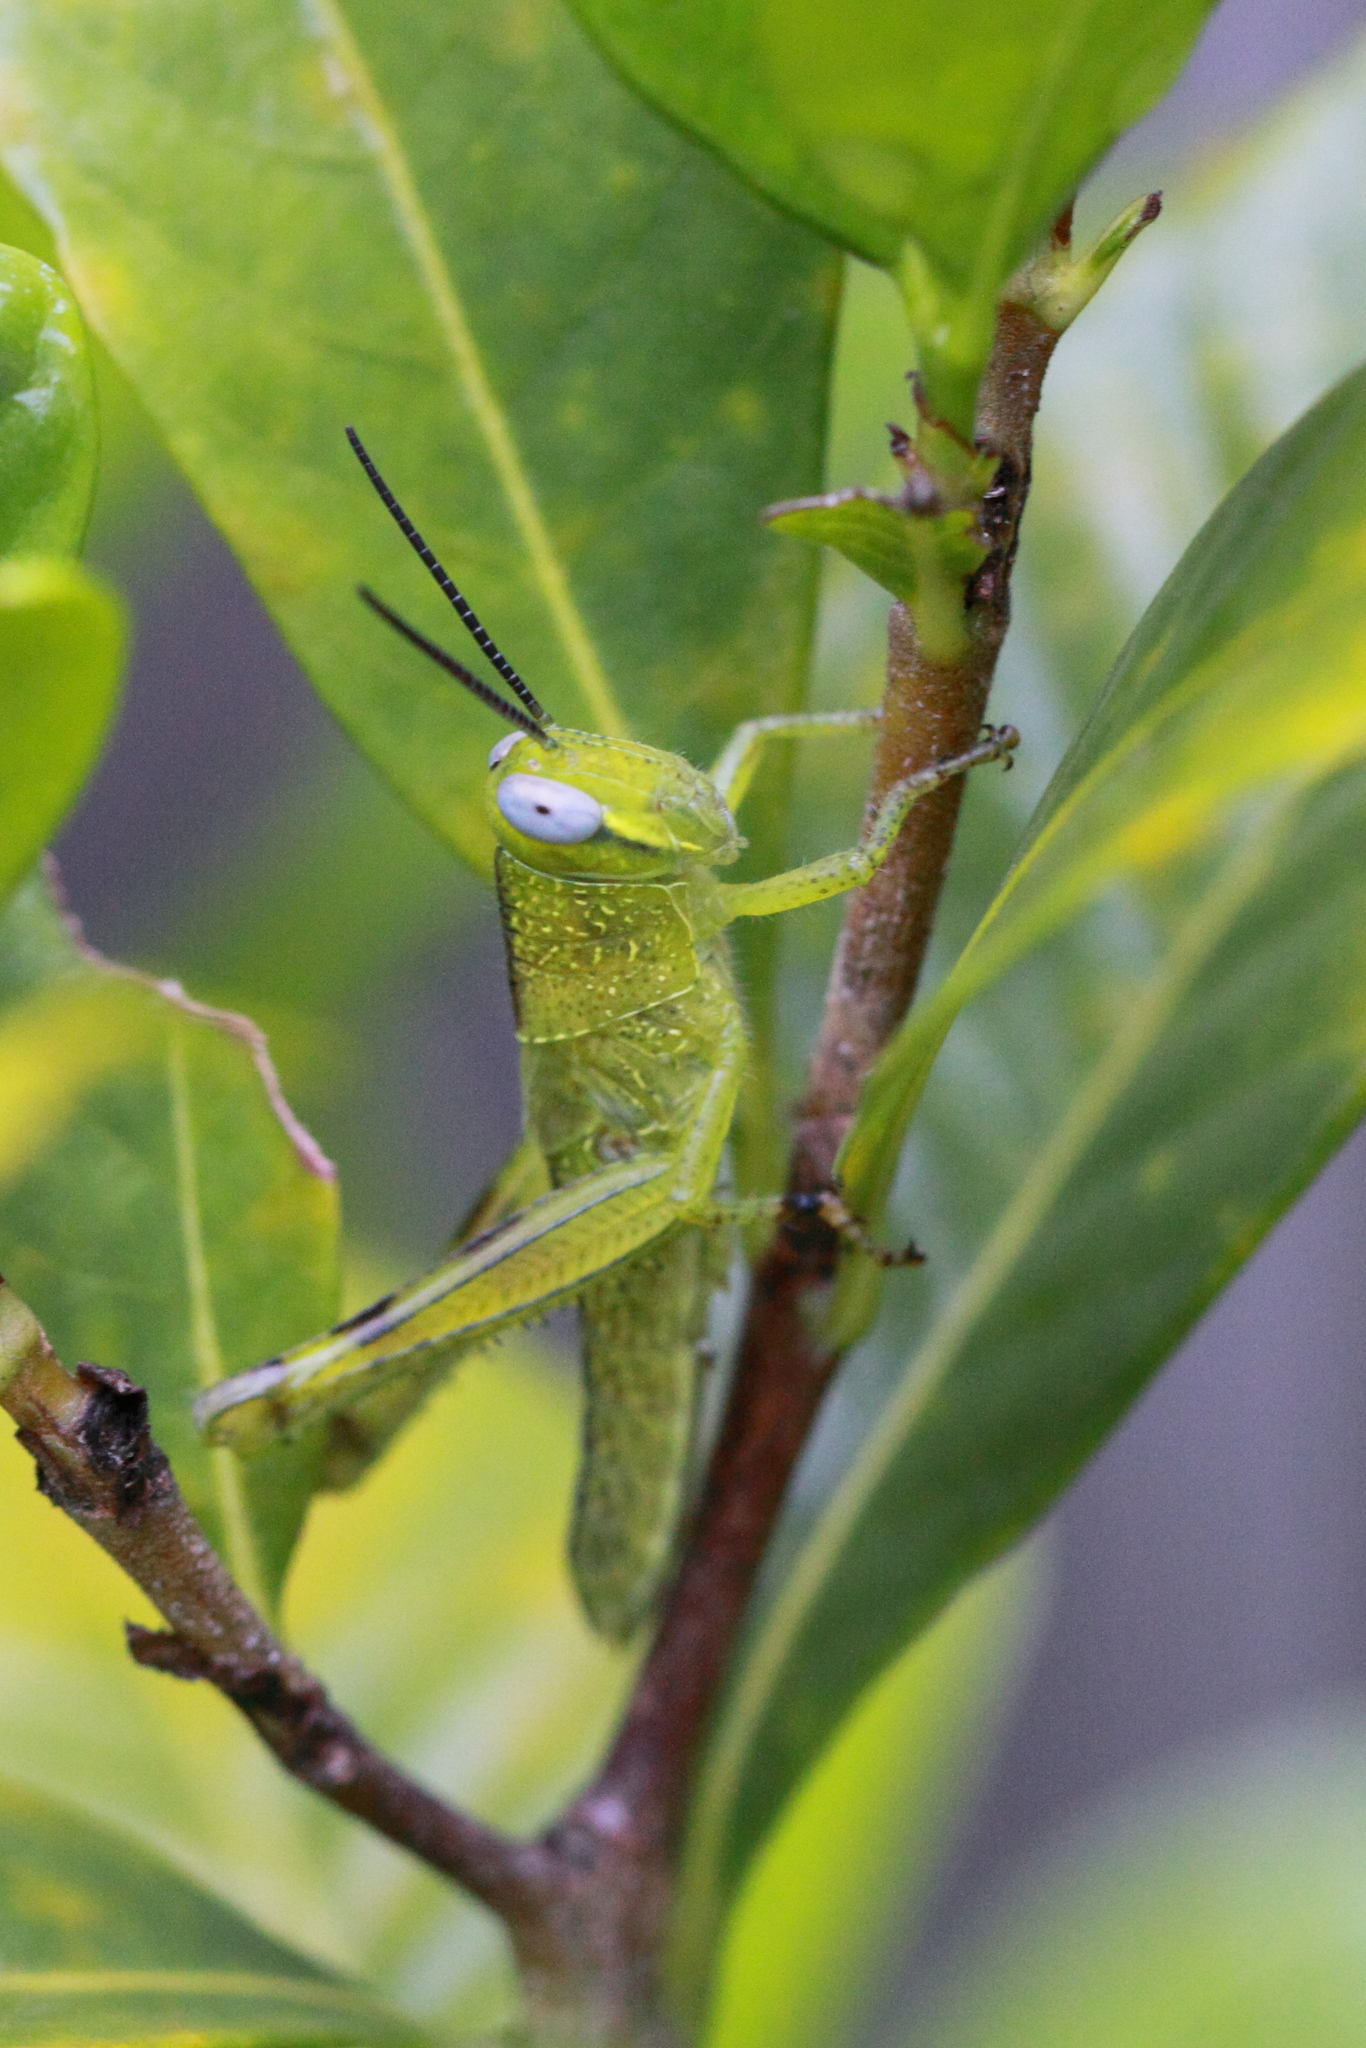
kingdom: Animalia
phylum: Arthropoda
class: Insecta
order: Orthoptera
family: Acrididae
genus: Valanga
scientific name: Valanga irregularis
